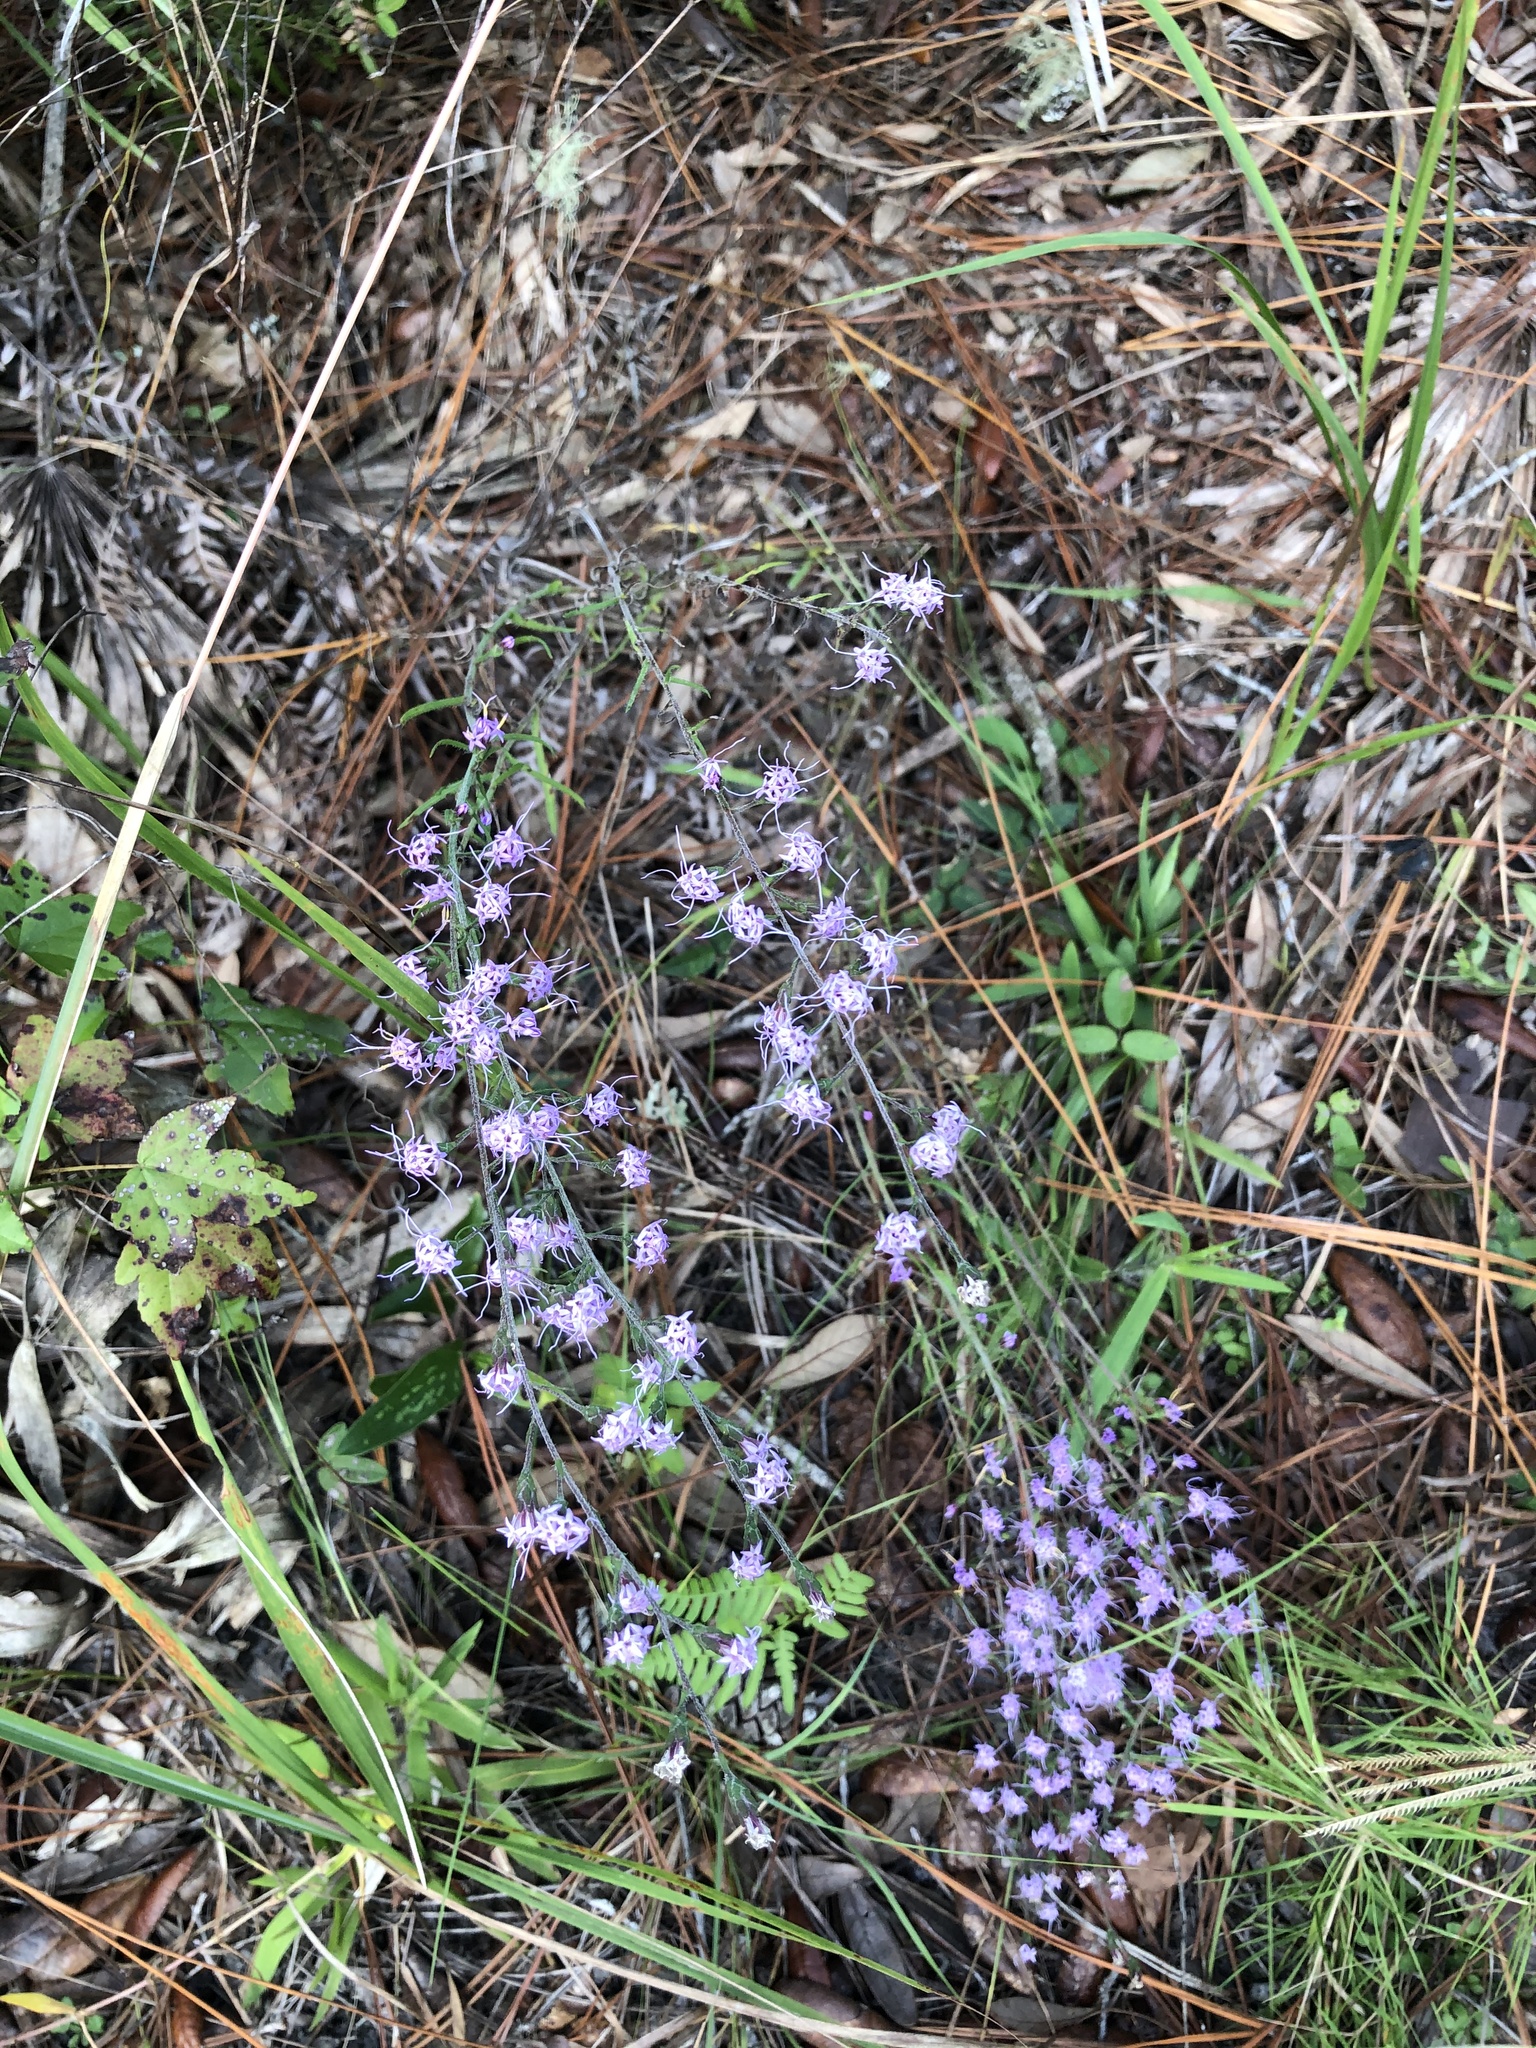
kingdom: Plantae
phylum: Tracheophyta
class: Magnoliopsida
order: Asterales
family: Asteraceae
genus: Liatris
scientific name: Liatris gracilis
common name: Slender gayfeather
